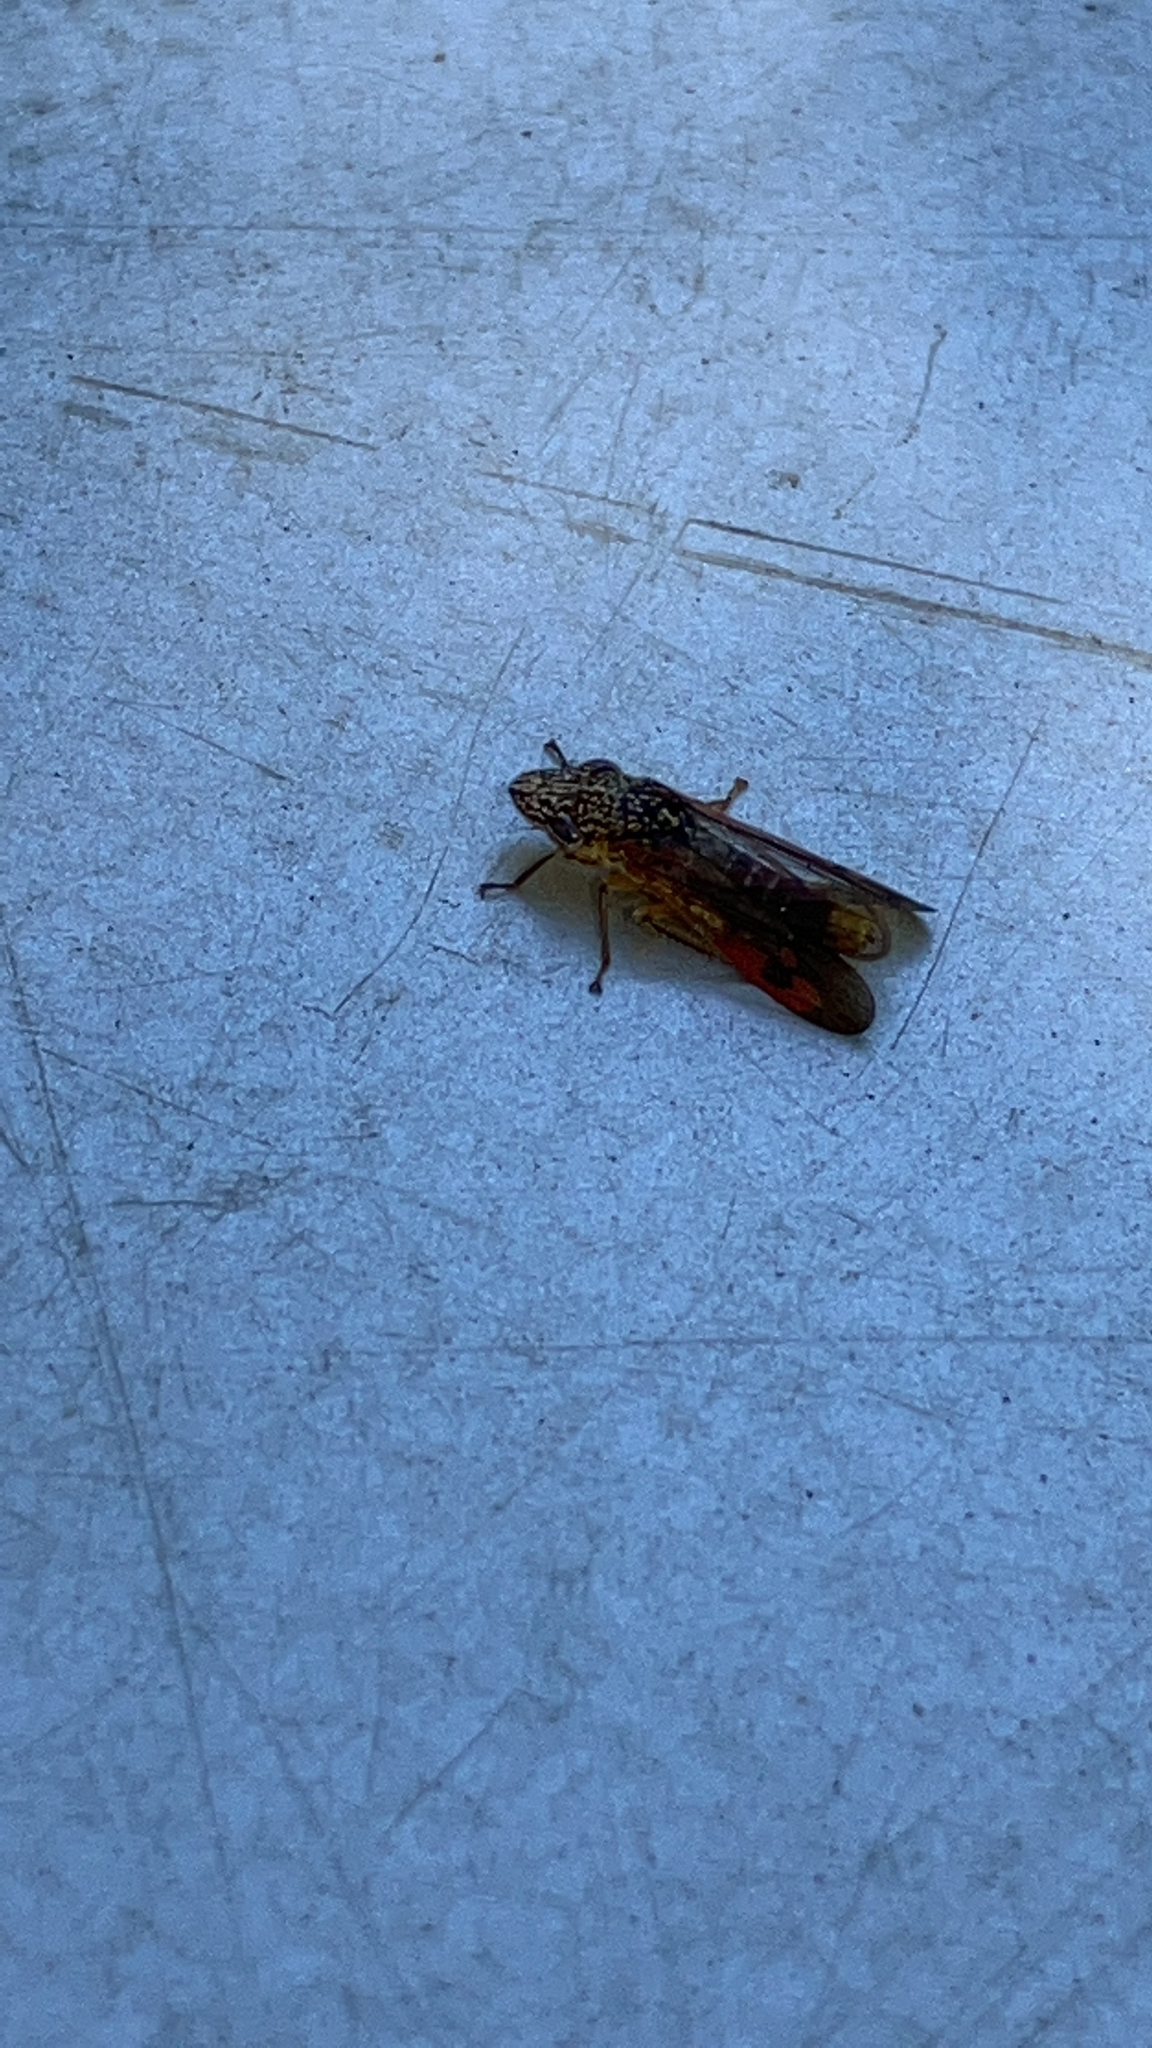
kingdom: Animalia
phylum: Arthropoda
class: Insecta
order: Hemiptera
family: Cicadellidae
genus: Homalodisca
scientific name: Homalodisca liturata
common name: Lacertate sharpshooter
